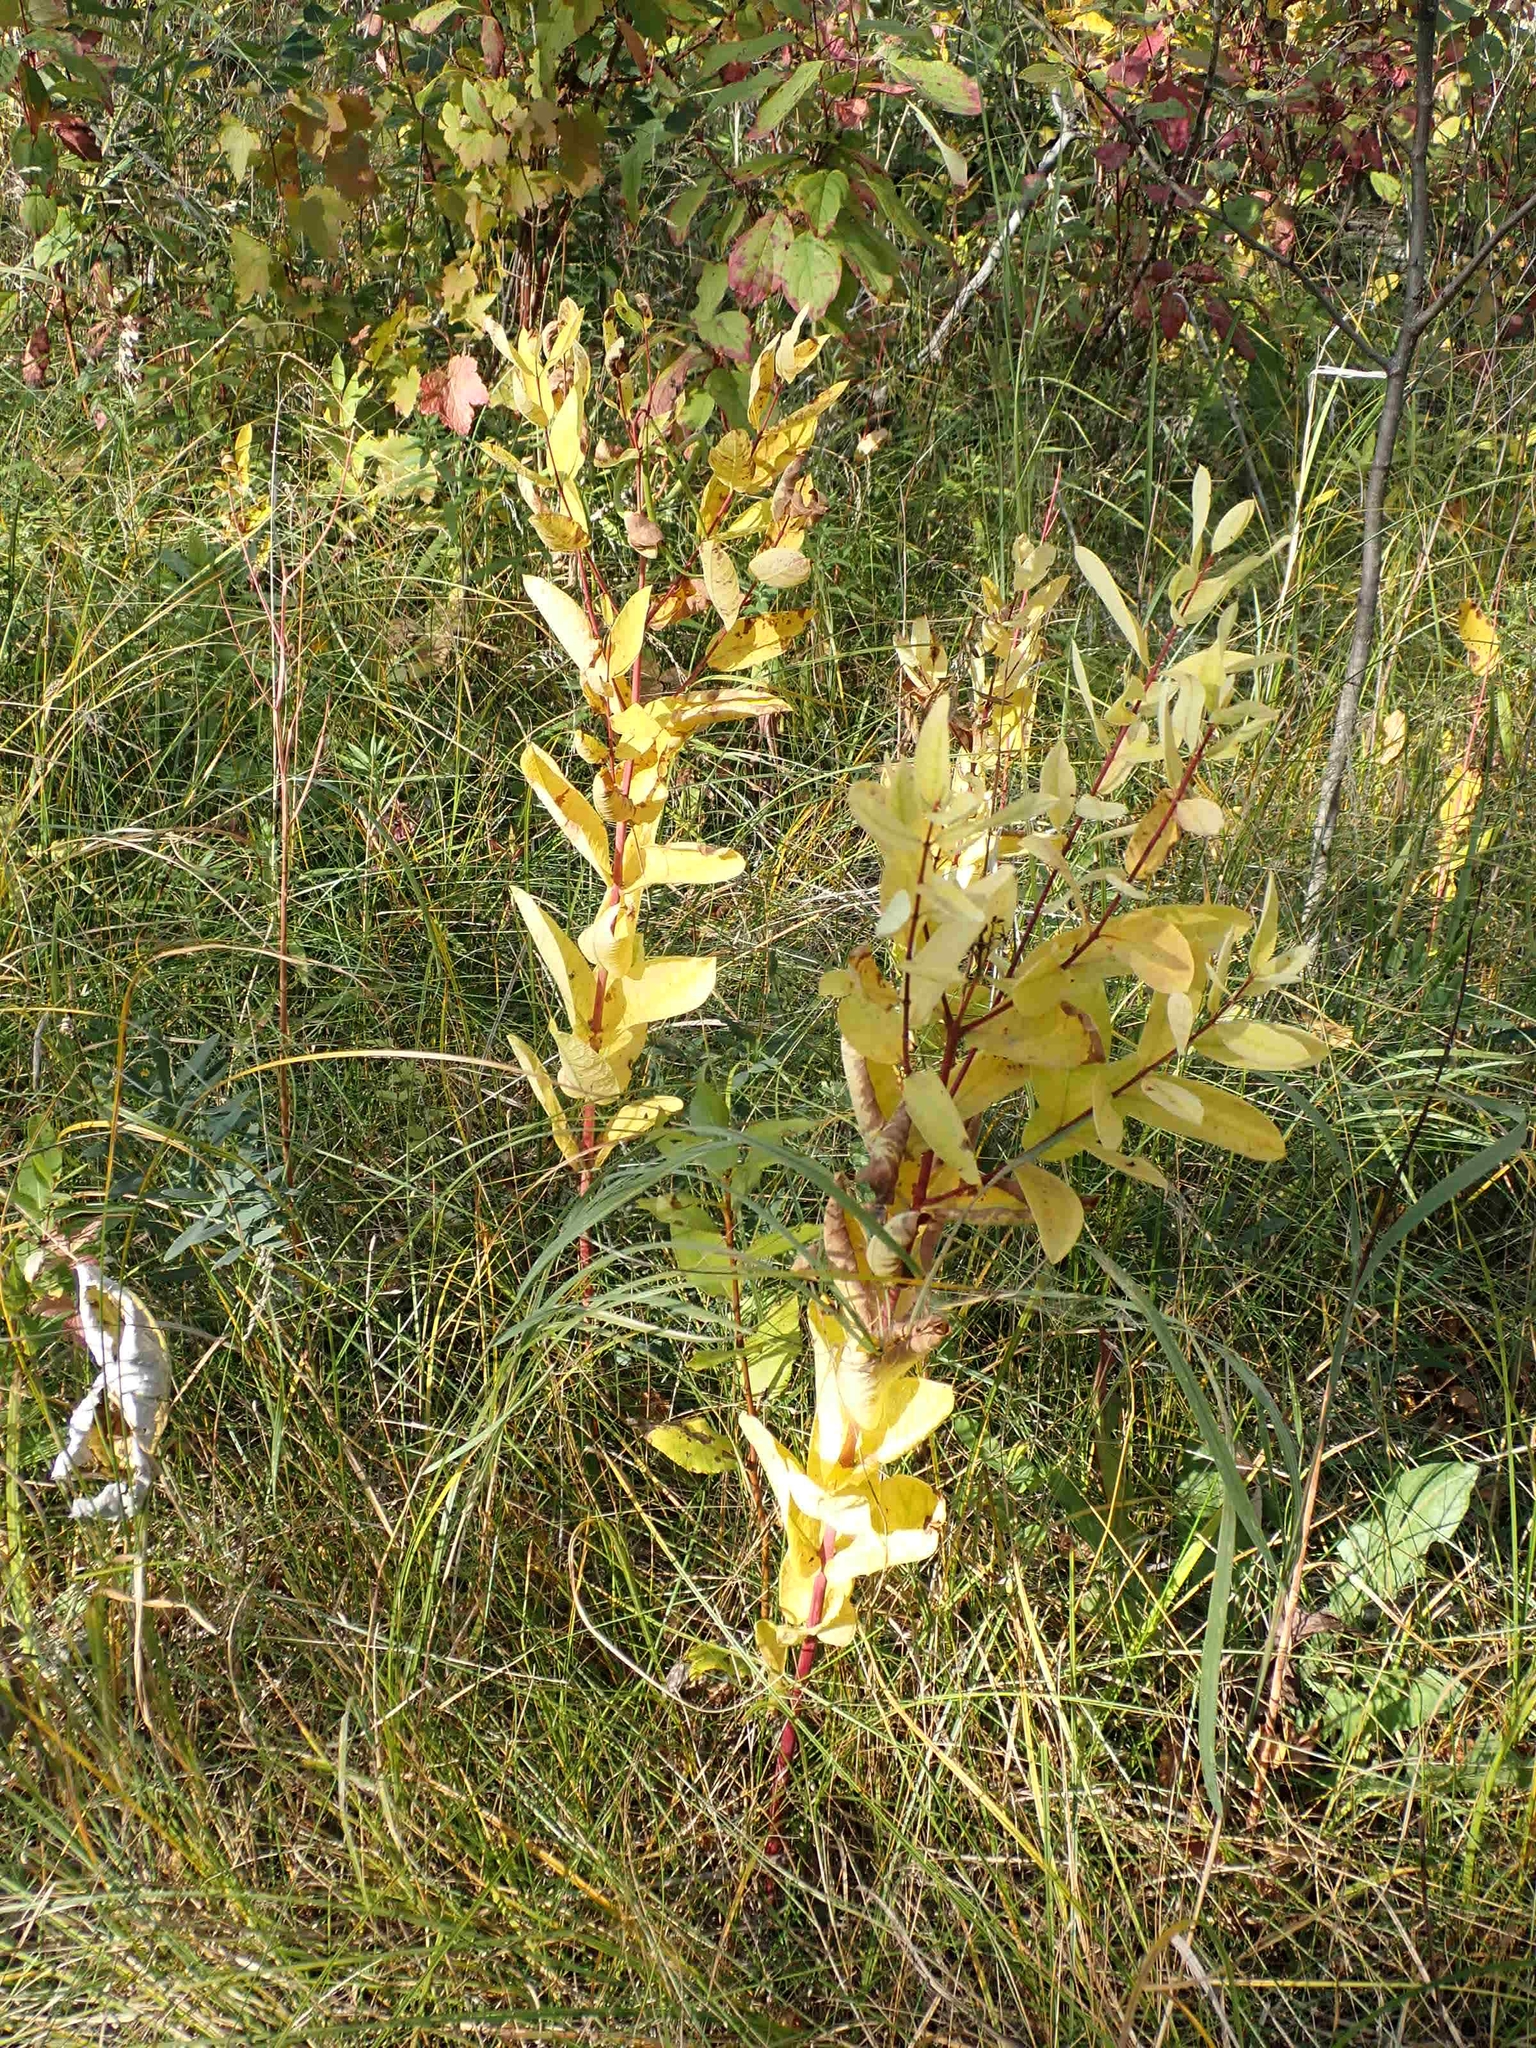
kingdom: Plantae
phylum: Tracheophyta
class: Magnoliopsida
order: Gentianales
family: Apocynaceae
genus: Apocynum
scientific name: Apocynum cannabinum
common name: Hemp dogbane
